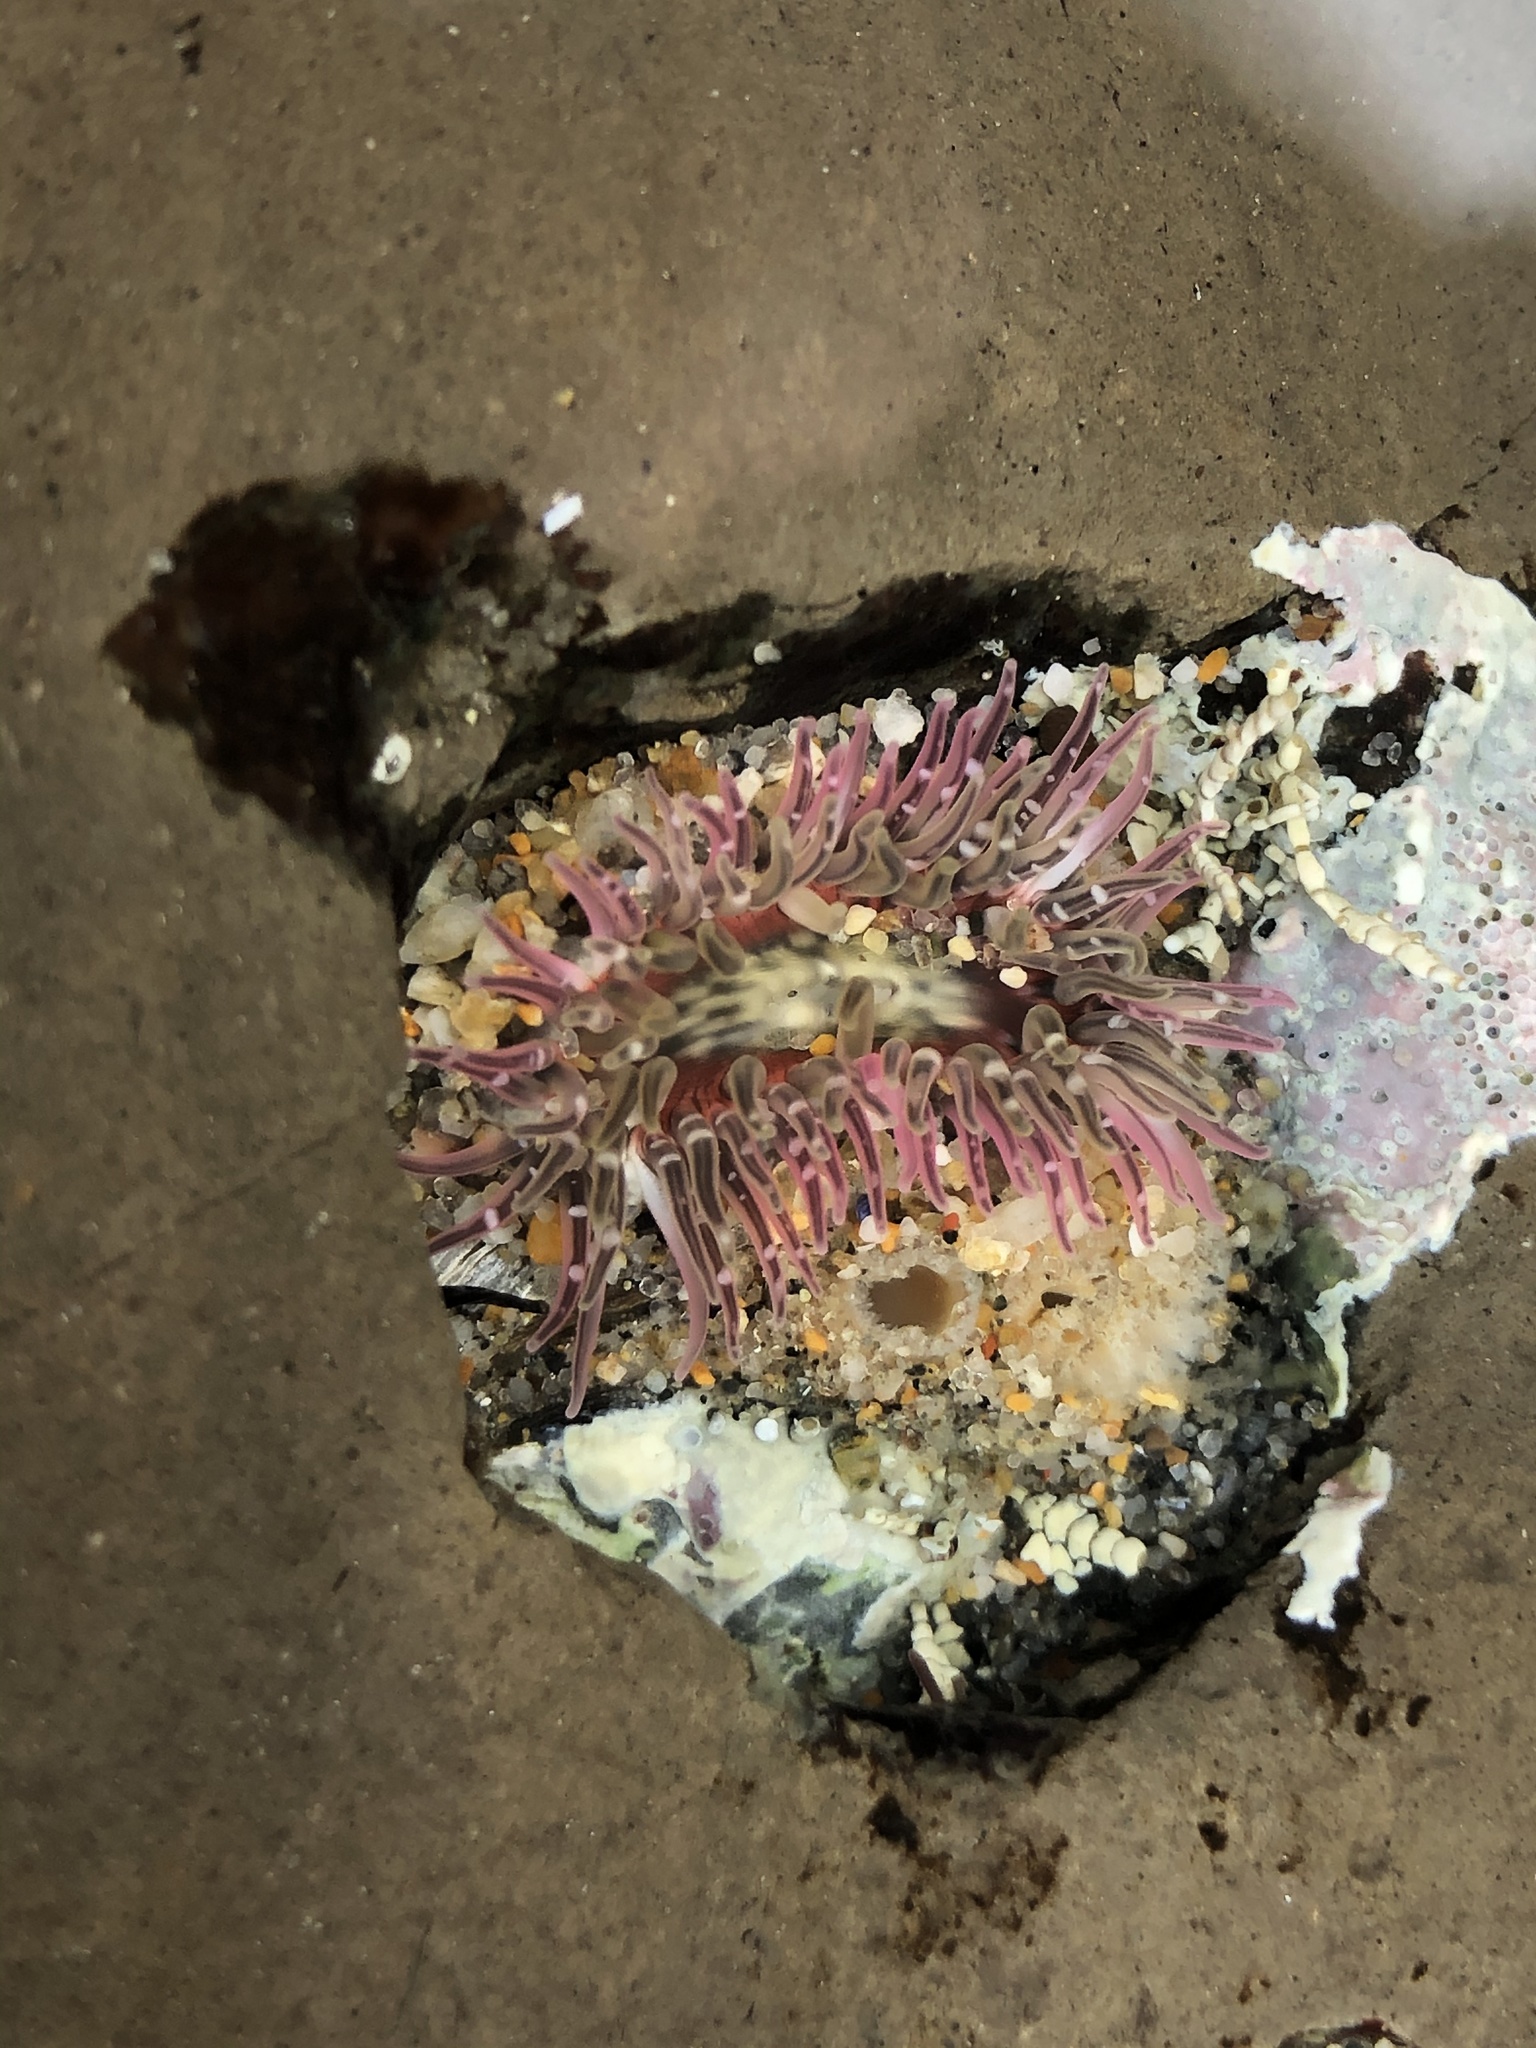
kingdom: Animalia
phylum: Cnidaria
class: Anthozoa
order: Actiniaria
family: Actiniidae
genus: Anthopleura
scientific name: Anthopleura artemisia
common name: Buried sea anemone
